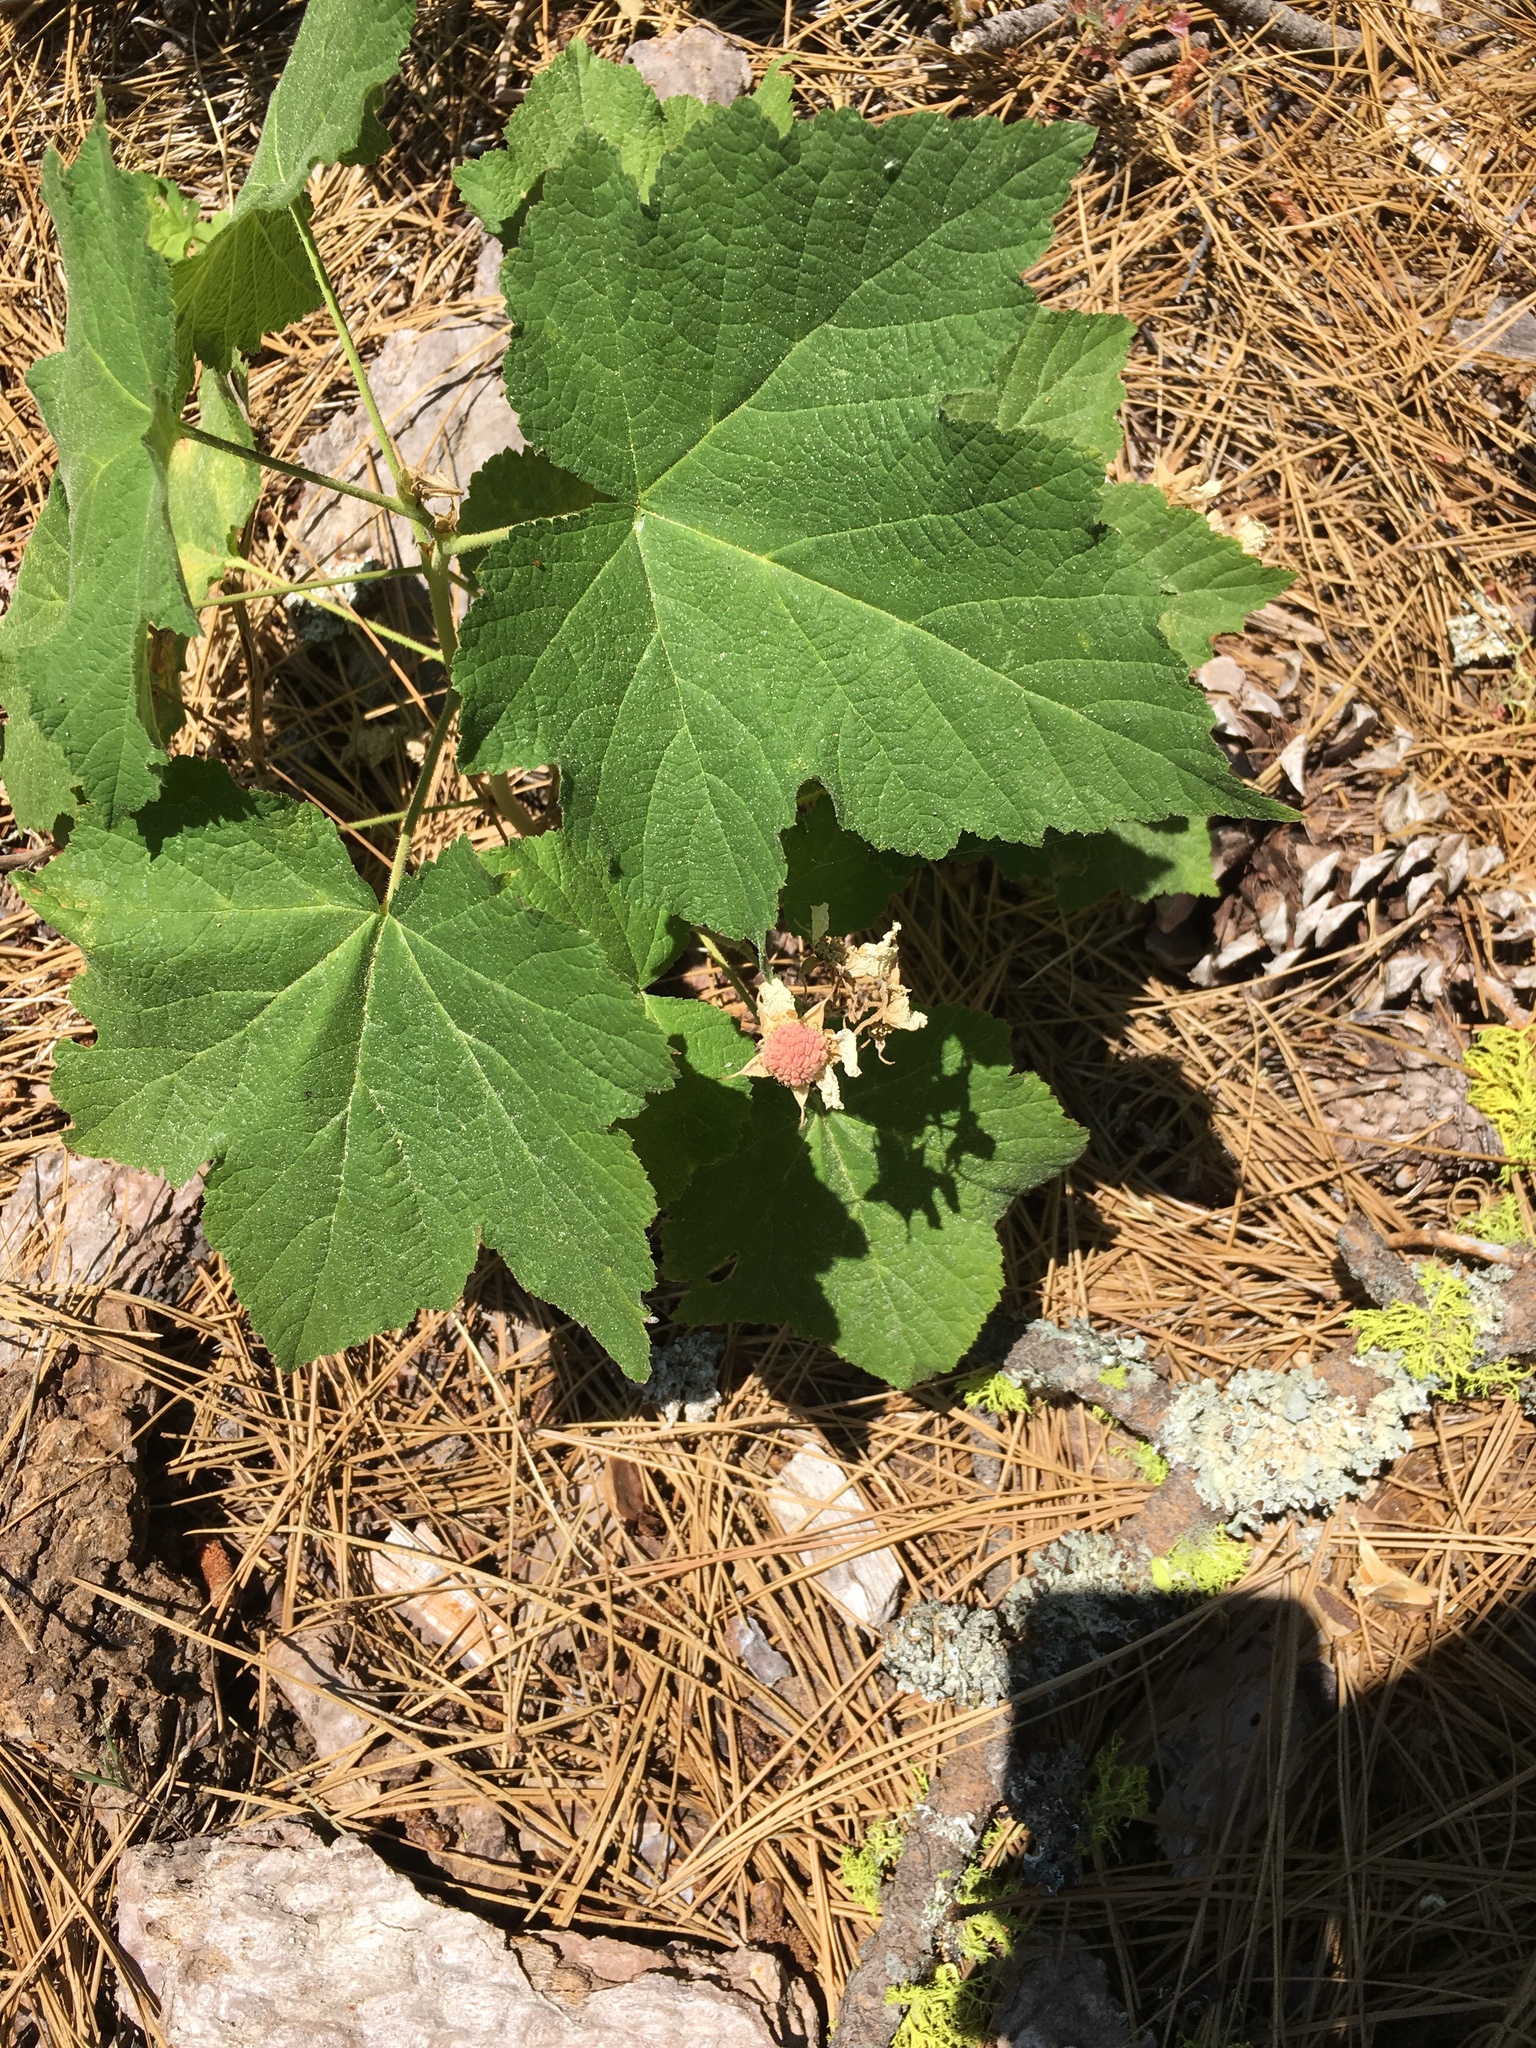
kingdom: Plantae
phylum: Tracheophyta
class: Magnoliopsida
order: Rosales
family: Rosaceae
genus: Rubus
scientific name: Rubus parviflorus
